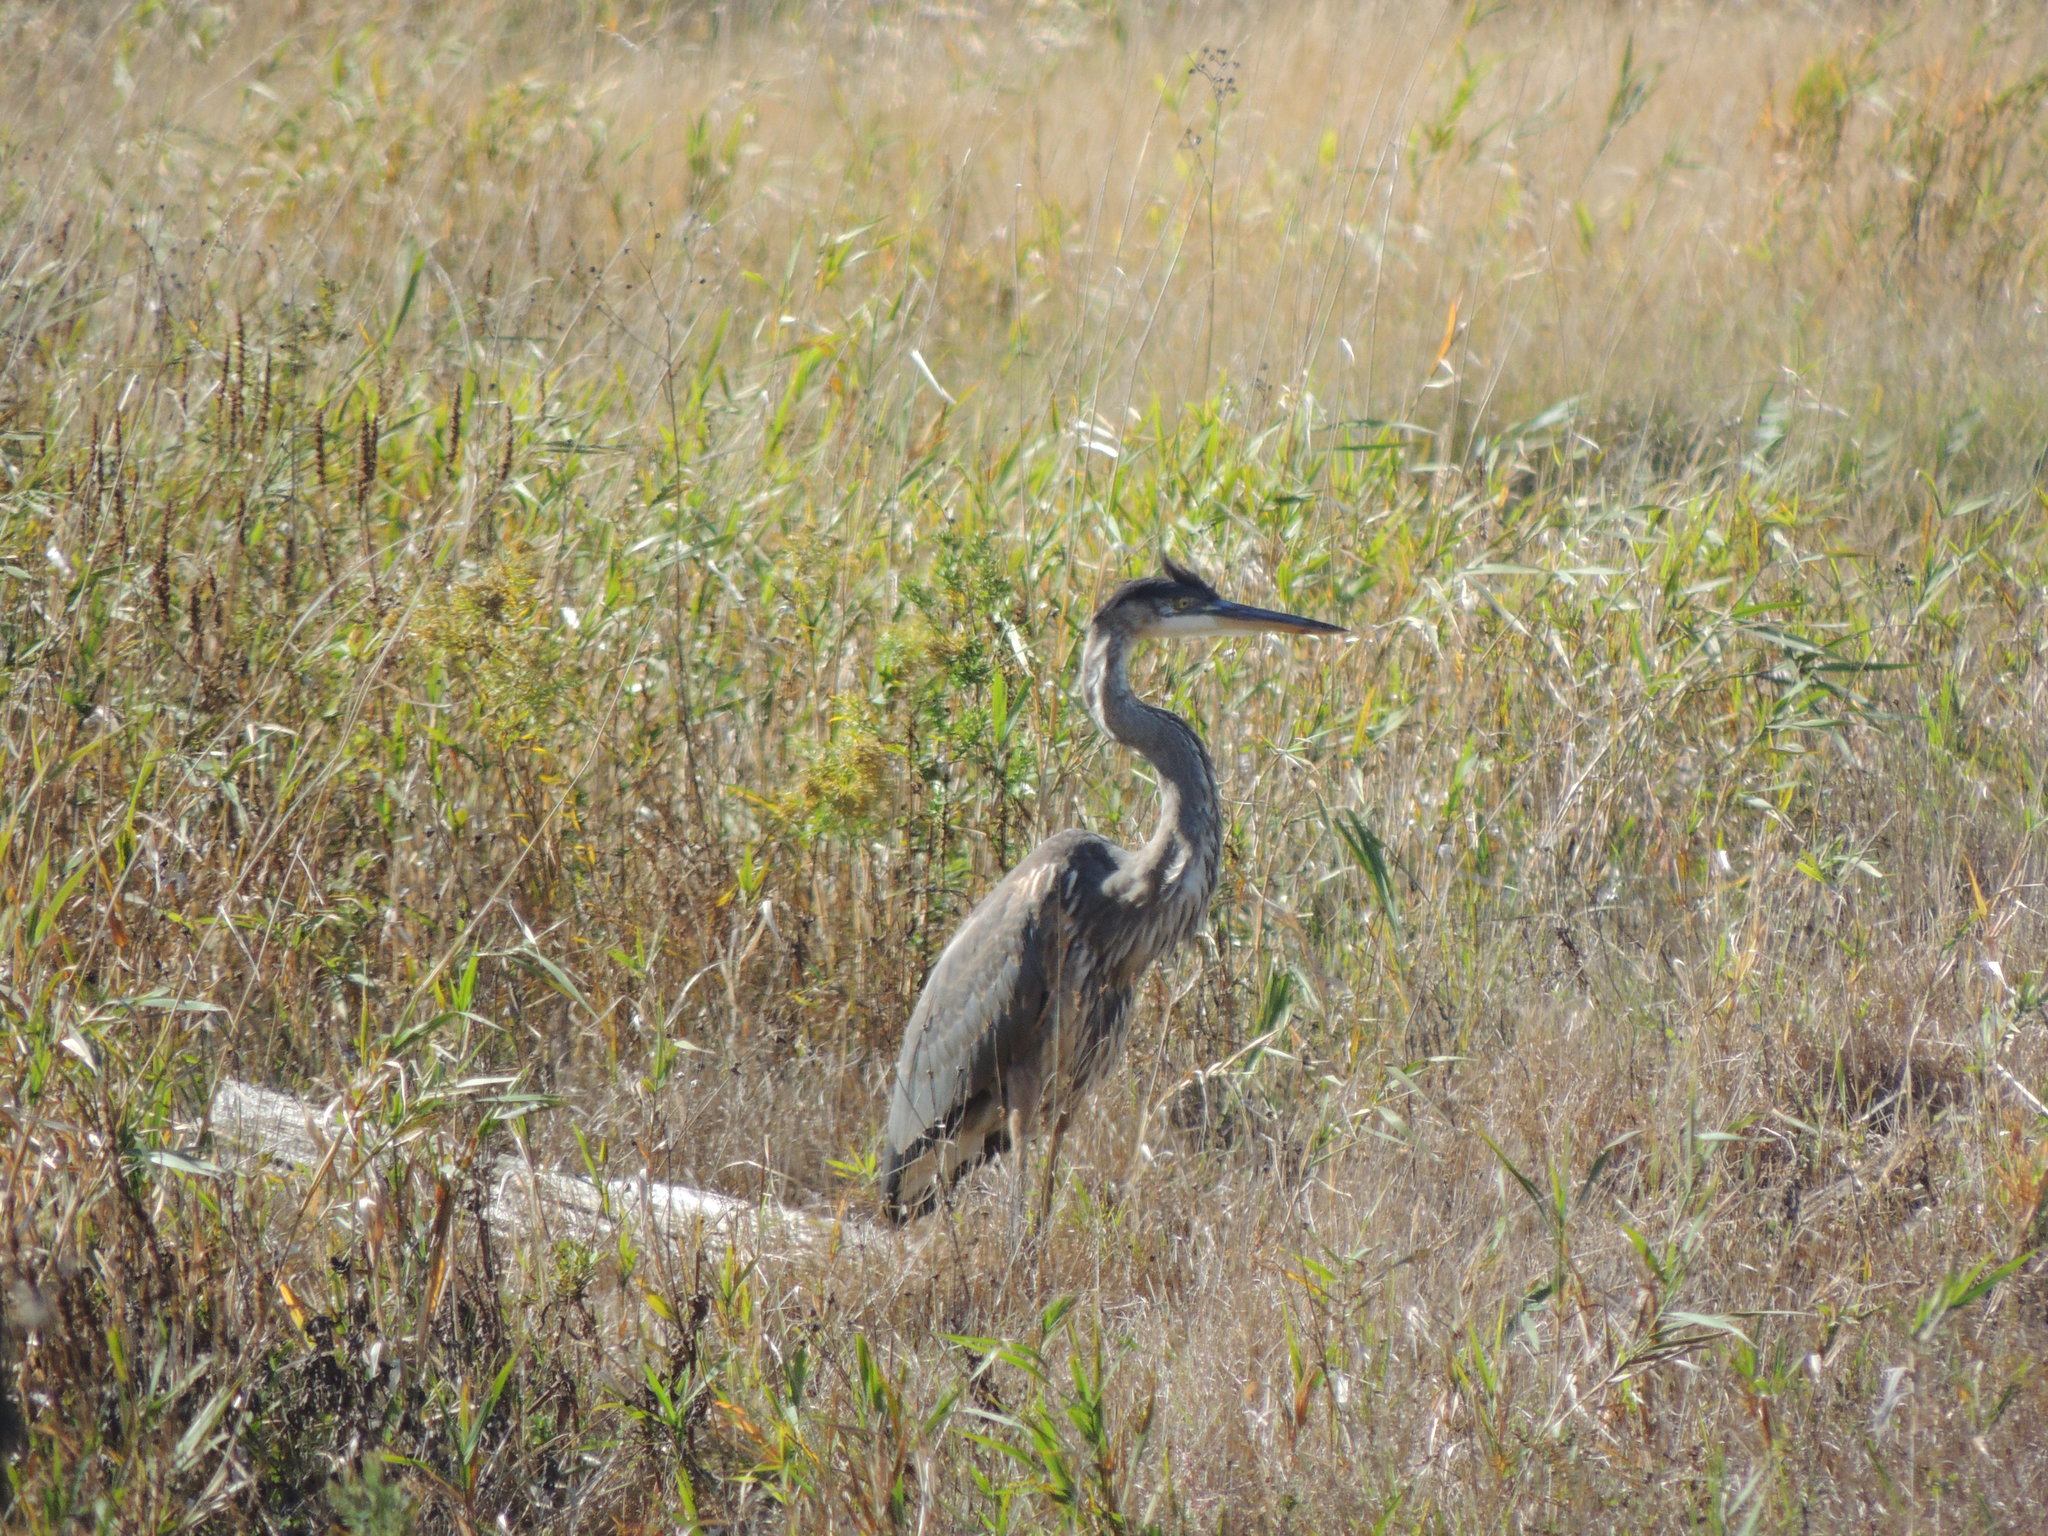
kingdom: Animalia
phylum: Chordata
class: Aves
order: Pelecaniformes
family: Ardeidae
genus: Ardea
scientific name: Ardea herodias
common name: Great blue heron
